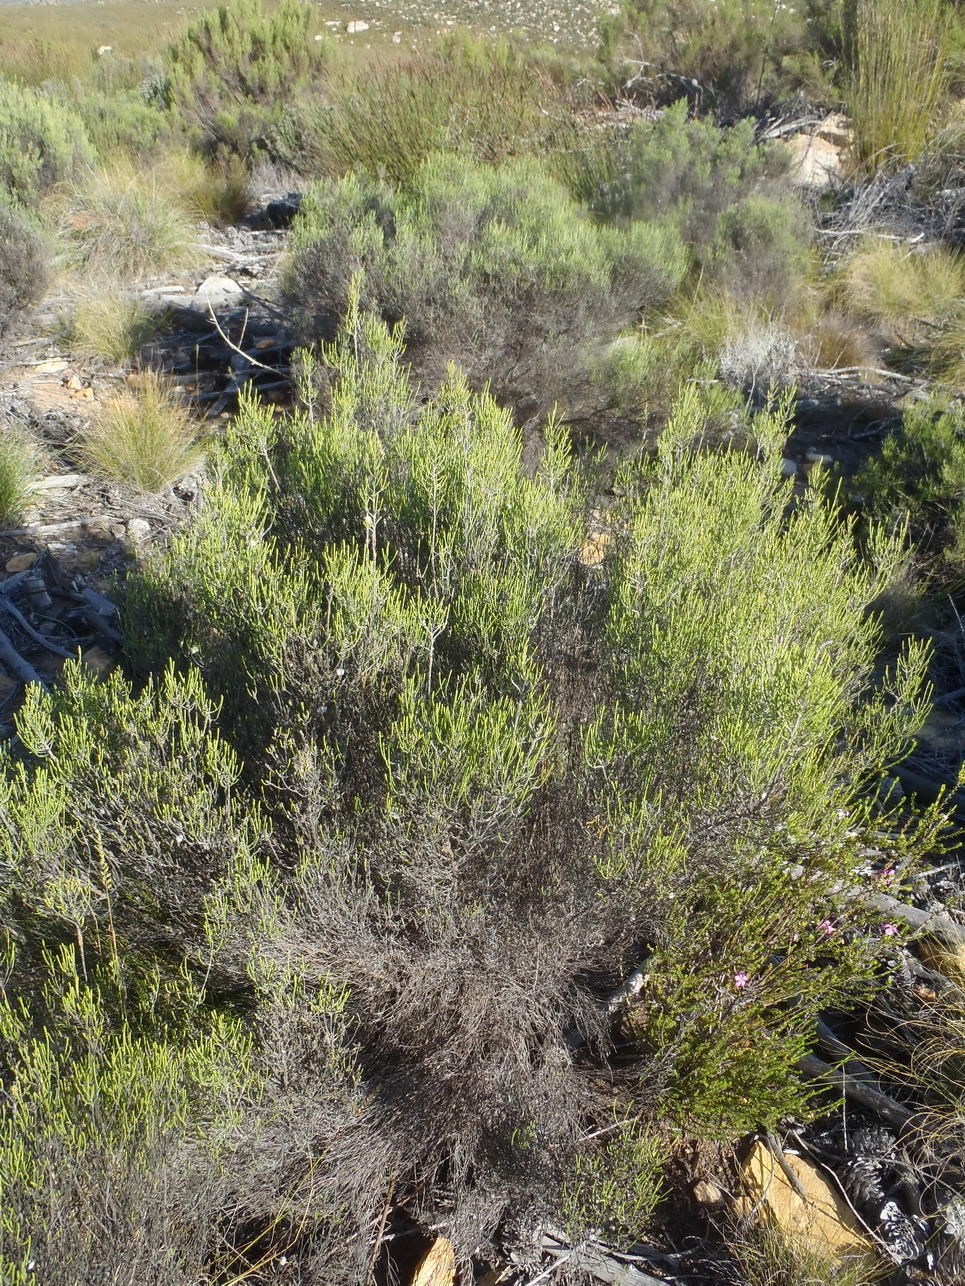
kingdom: Plantae
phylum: Tracheophyta
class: Magnoliopsida
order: Asterales
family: Asteraceae
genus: Dicerothamnus
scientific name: Dicerothamnus rhinocerotis
